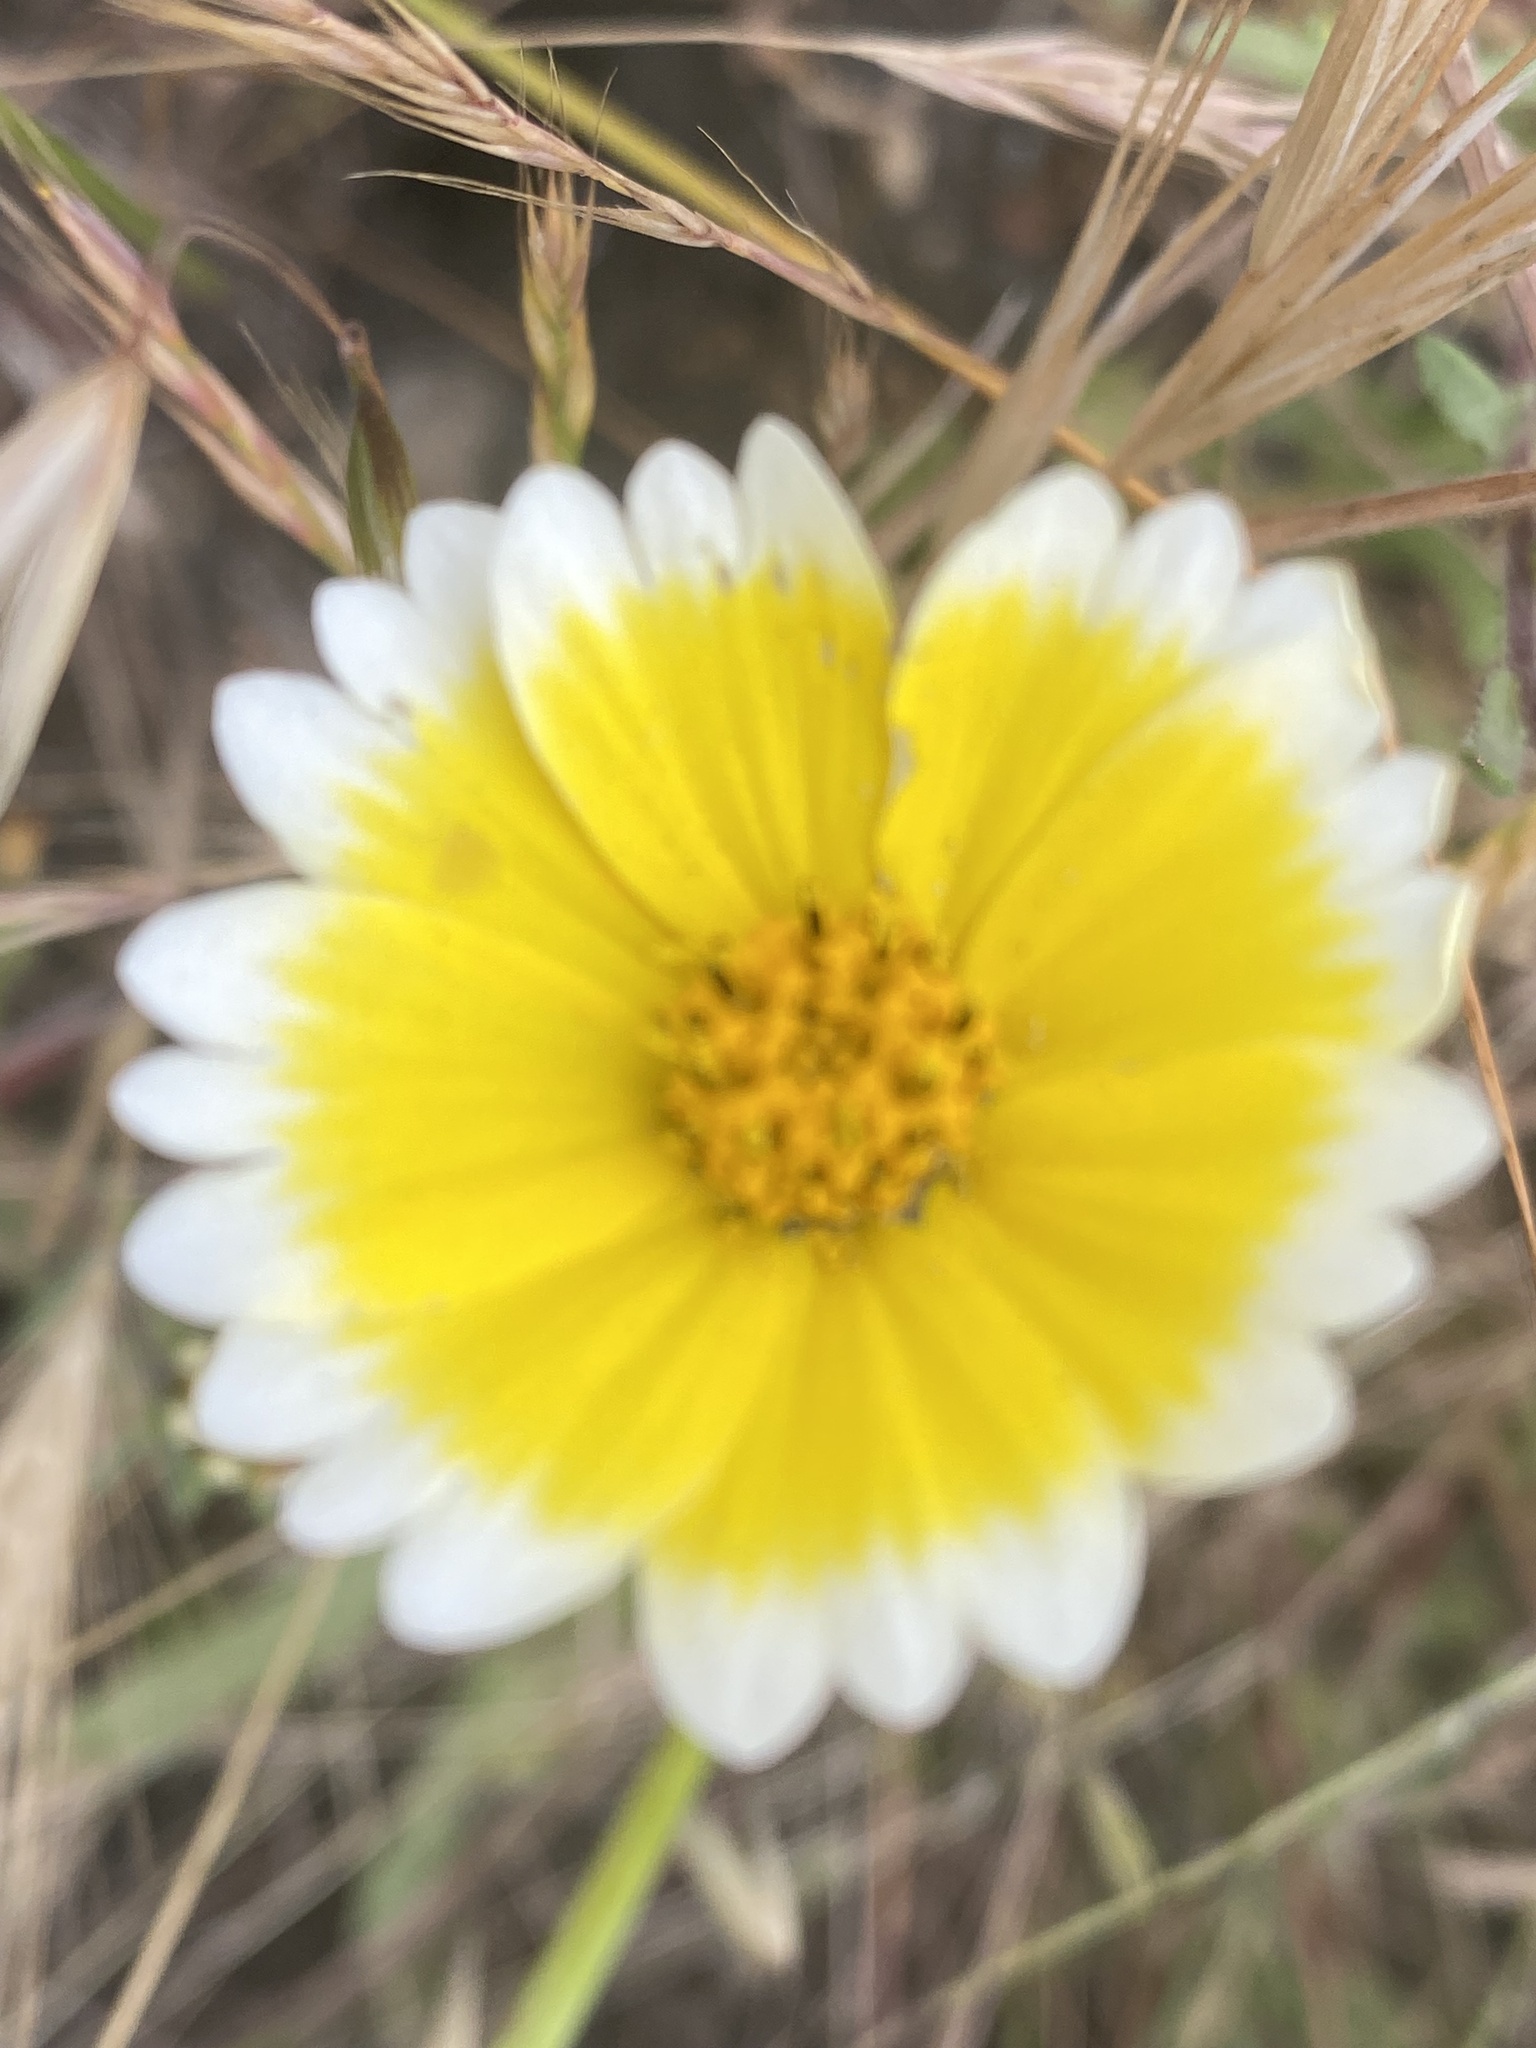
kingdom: Plantae
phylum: Tracheophyta
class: Magnoliopsida
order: Asterales
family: Asteraceae
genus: Layia
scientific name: Layia platyglossa
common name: Tidy-tips
